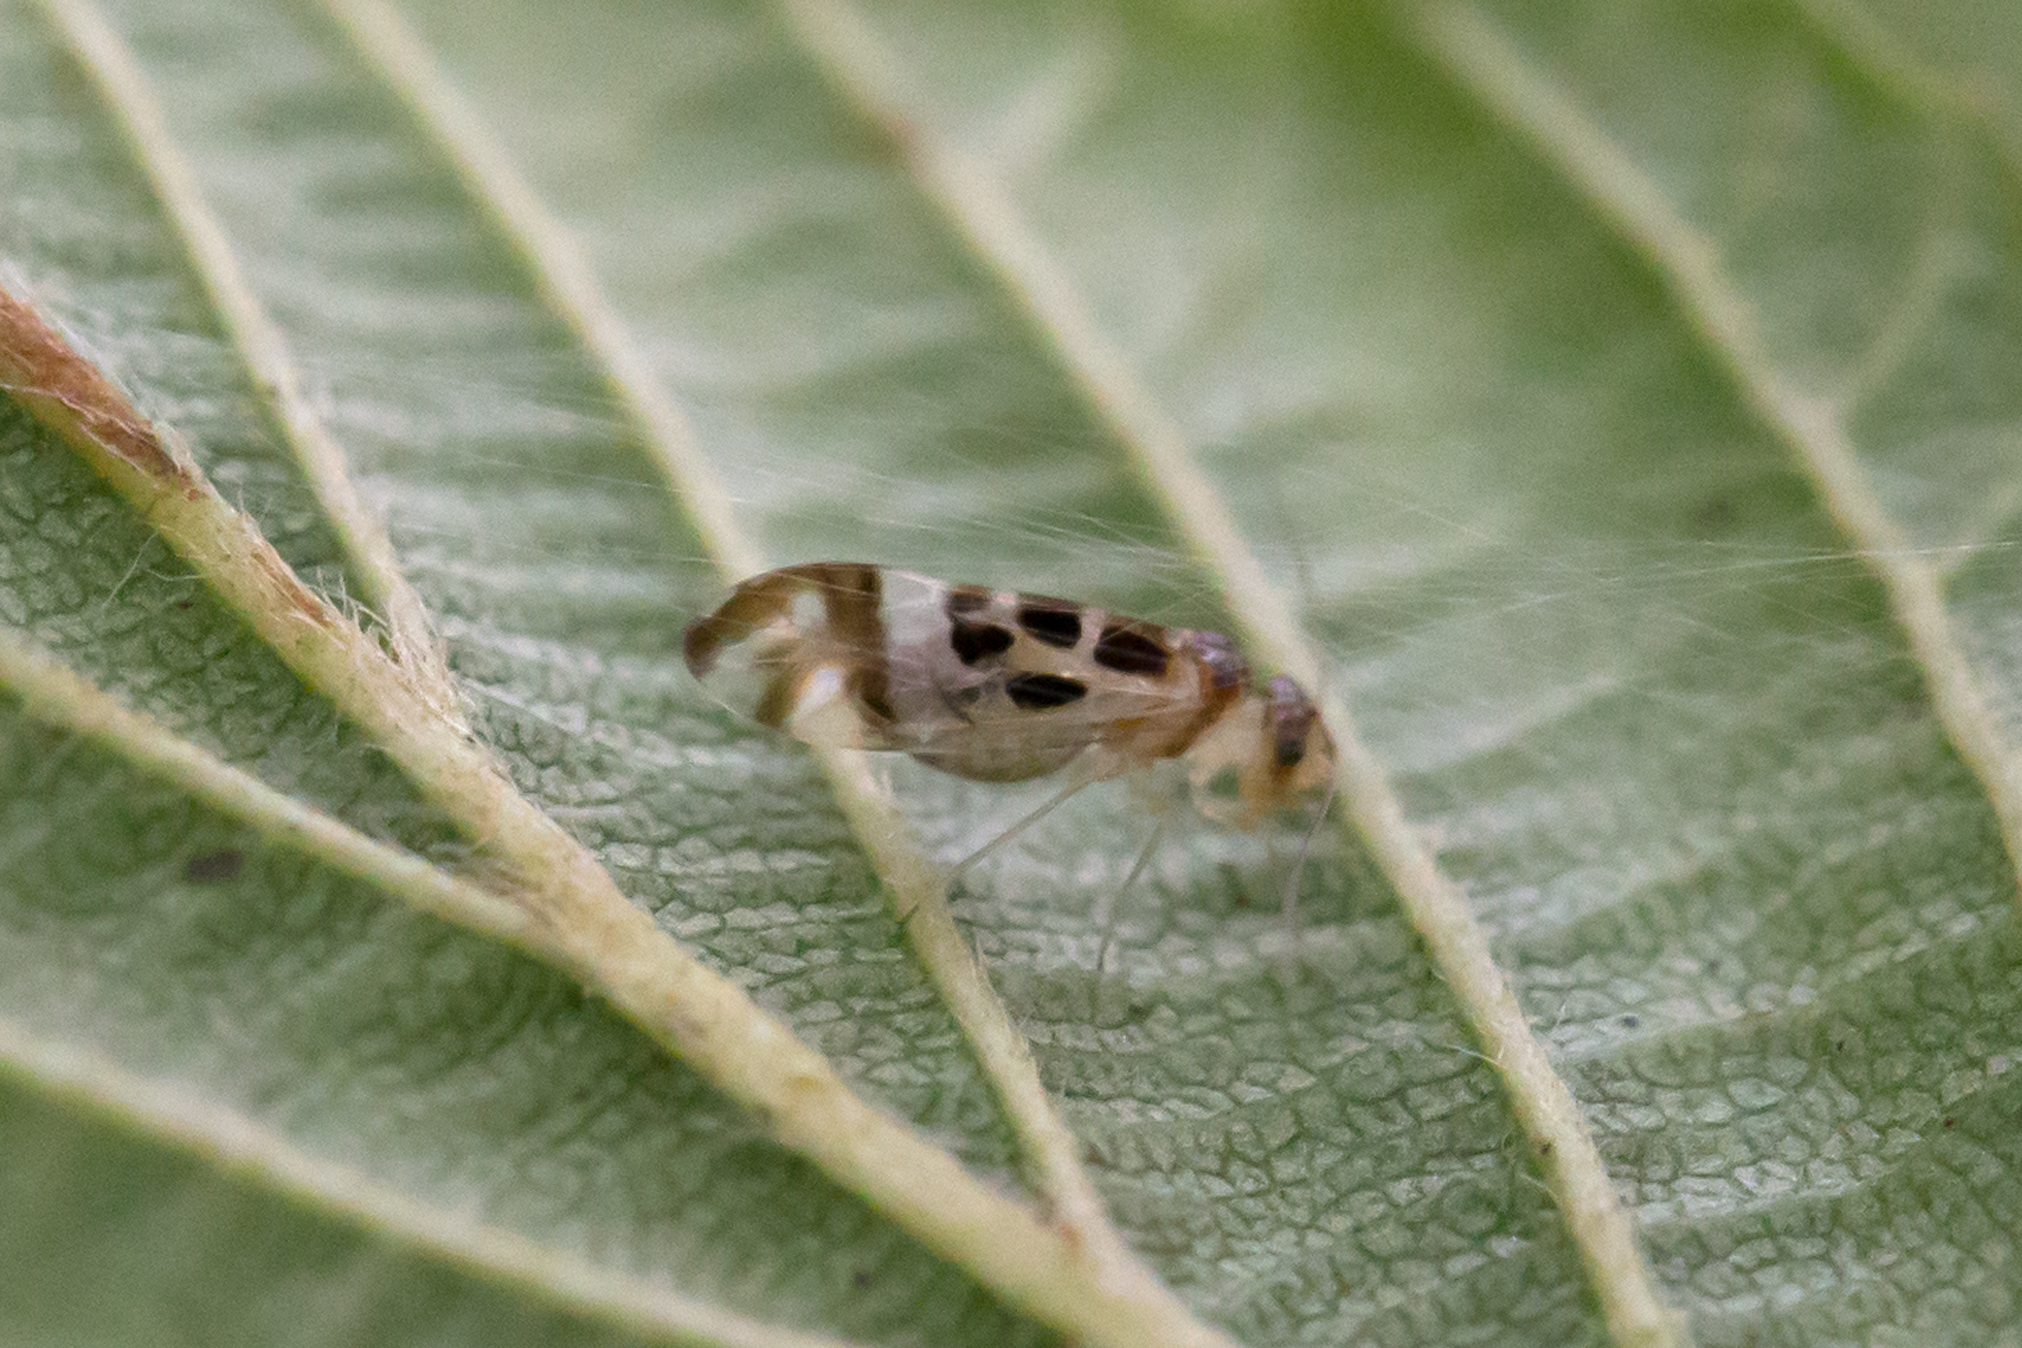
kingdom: Animalia
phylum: Arthropoda
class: Insecta
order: Psocodea
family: Stenopsocidae
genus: Graphopsocus
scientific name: Graphopsocus cruciatus
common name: Lizard bark louse
